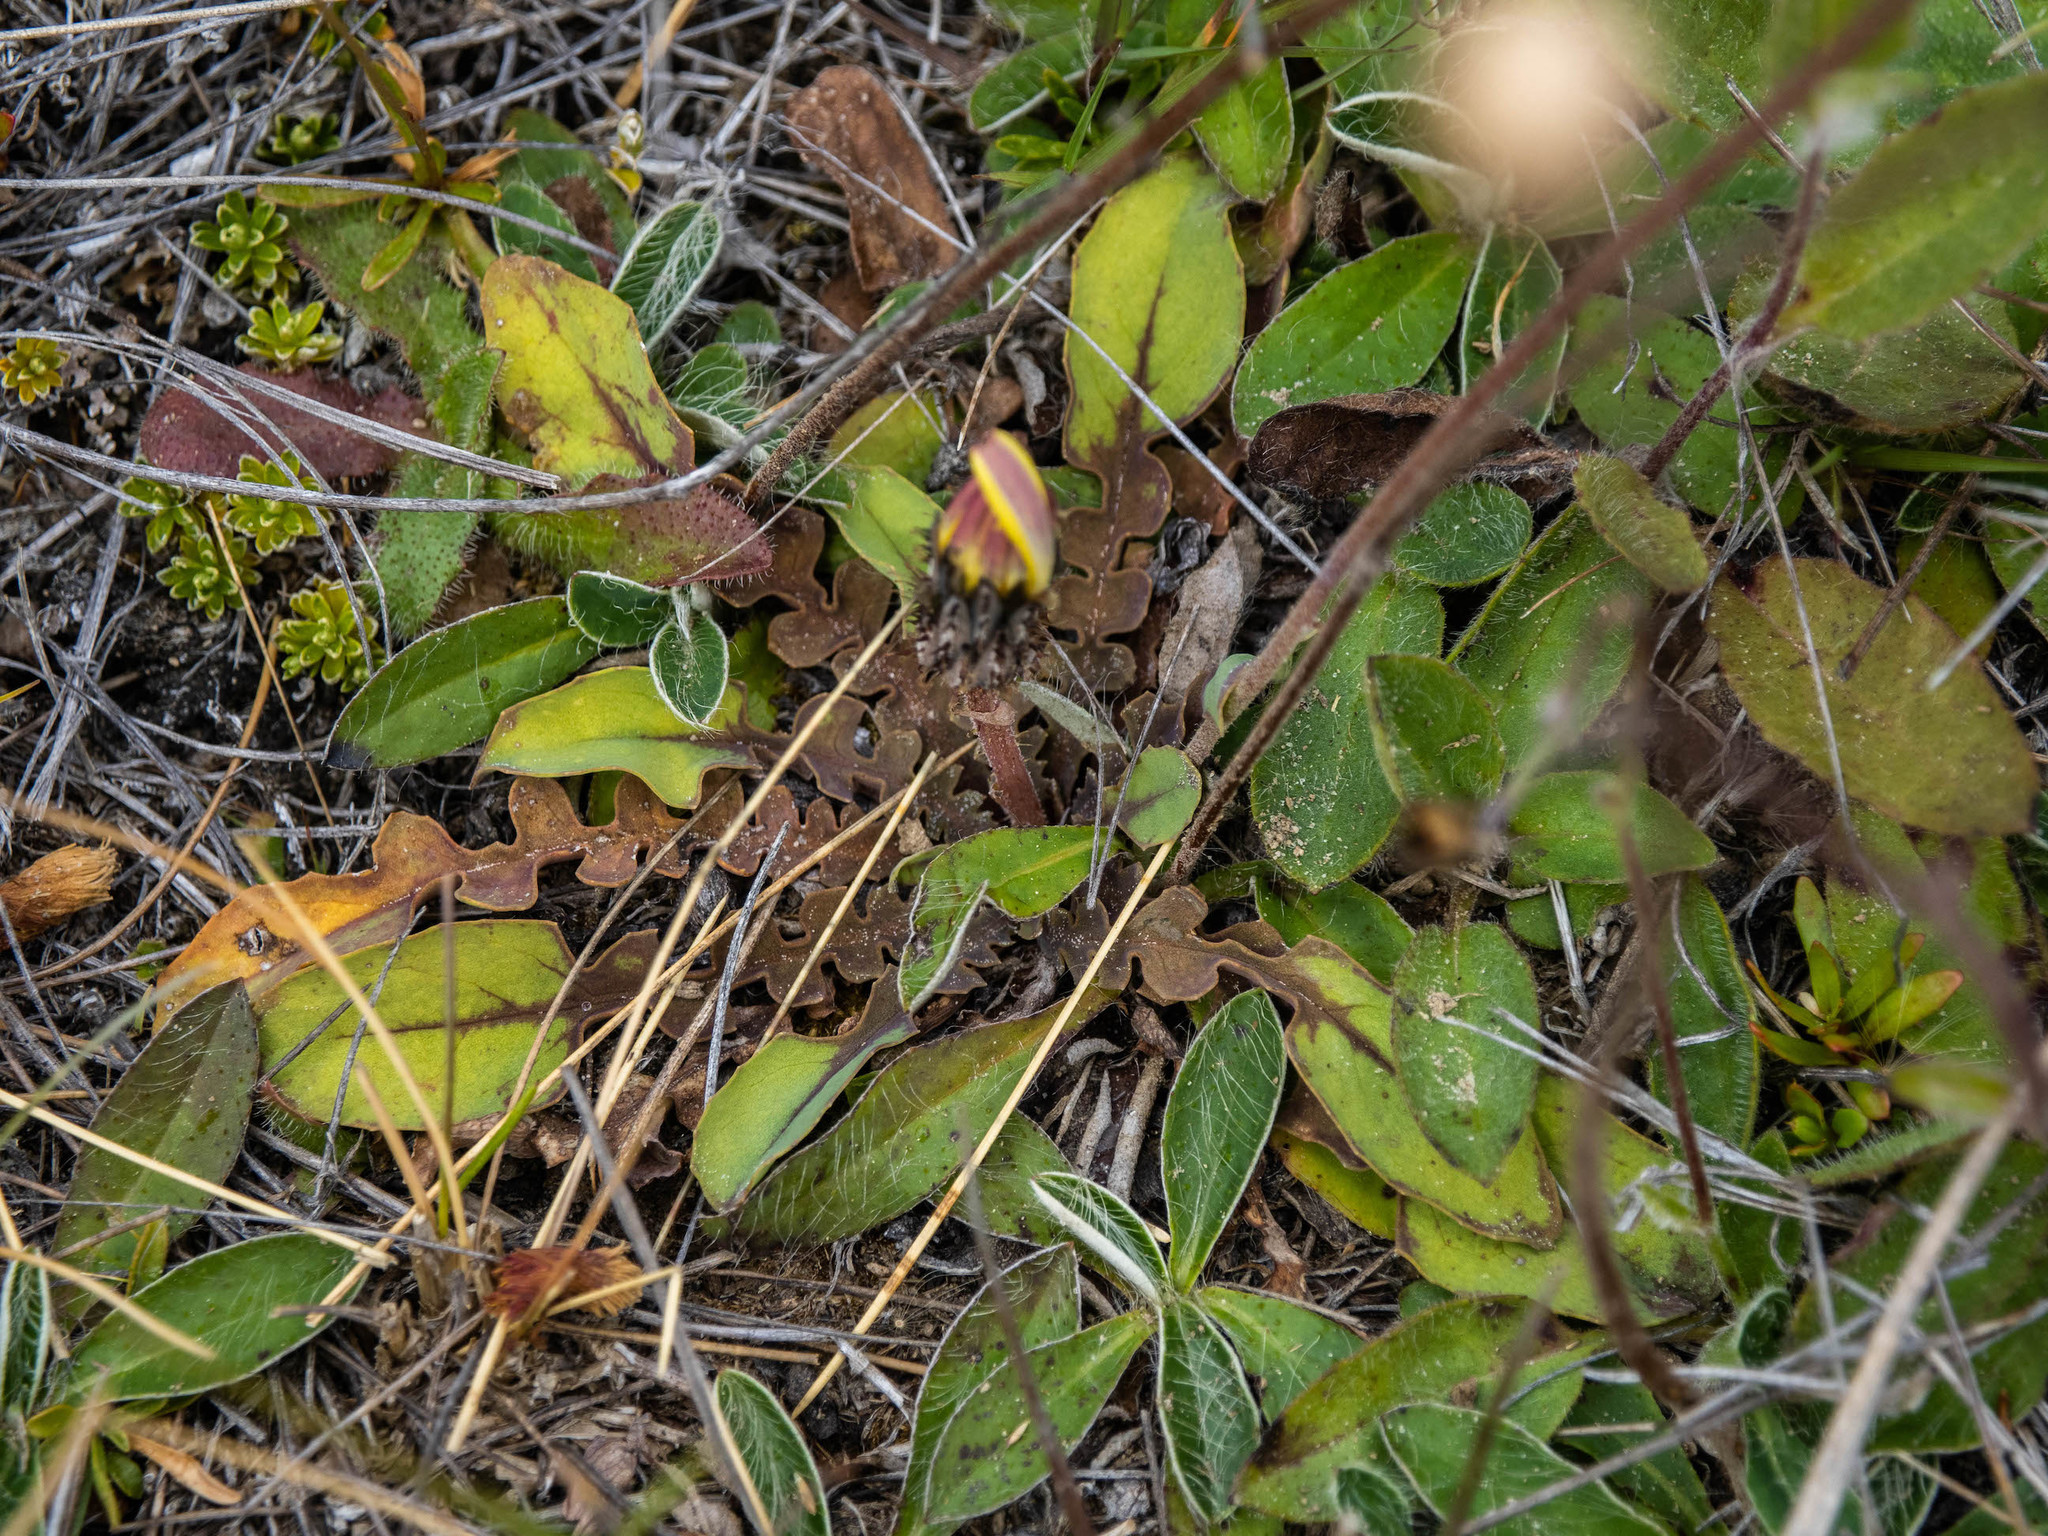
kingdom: Plantae
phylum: Tracheophyta
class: Magnoliopsida
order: Asterales
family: Asteraceae
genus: Sonchus
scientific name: Sonchus novae-zelandiae
